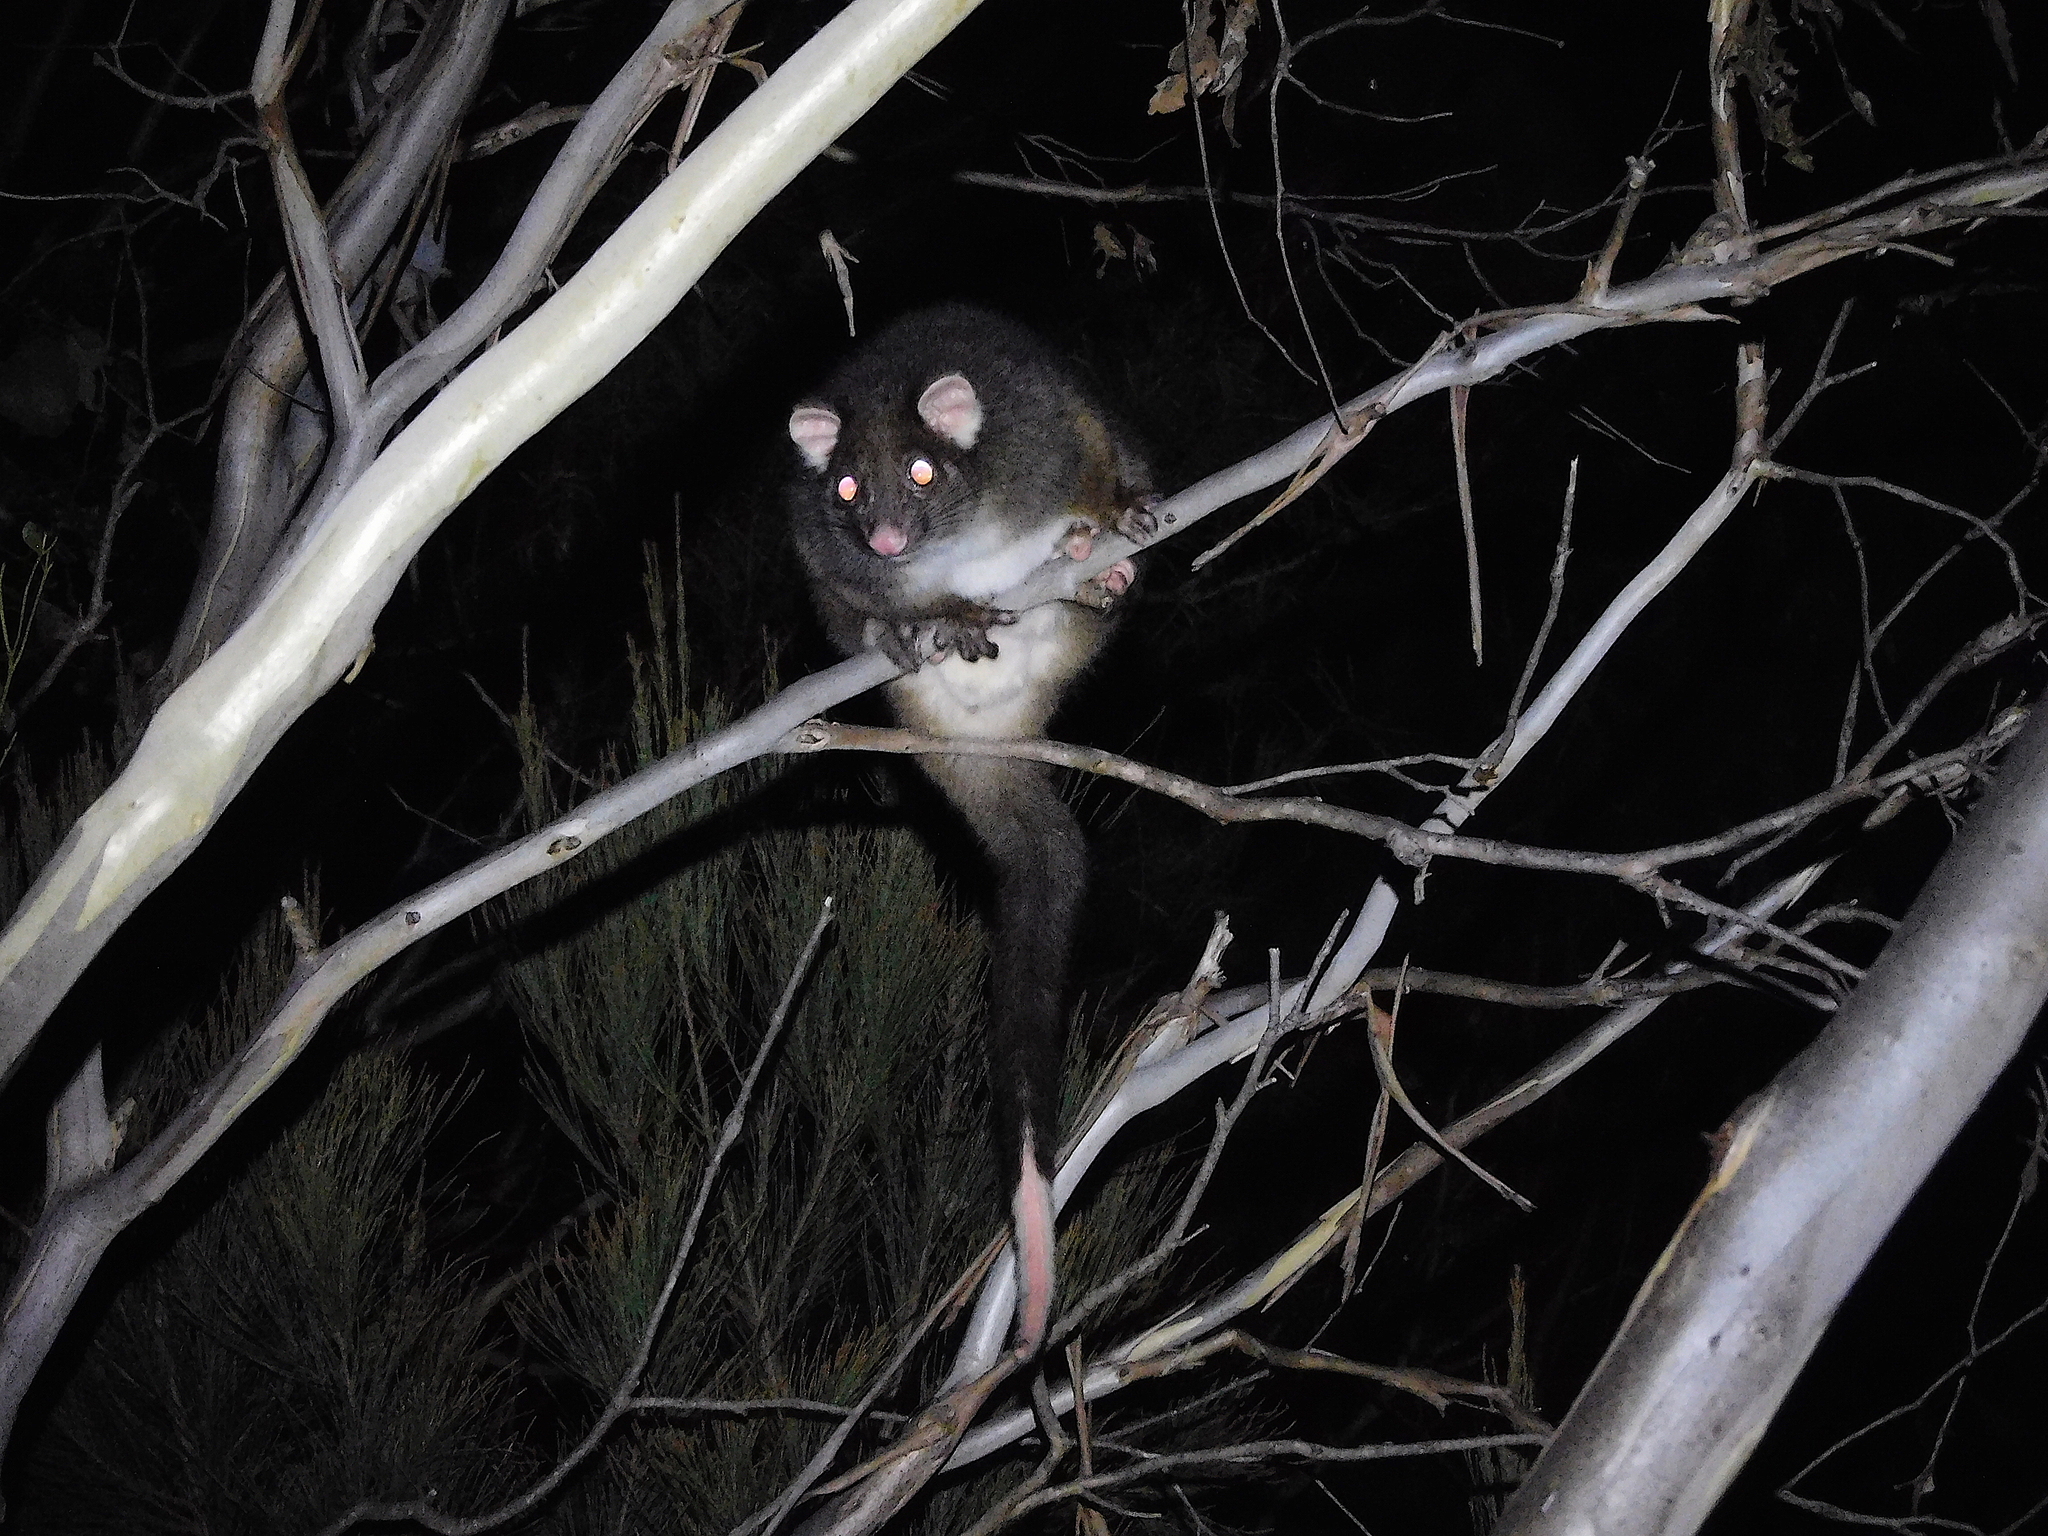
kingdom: Animalia
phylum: Chordata
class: Mammalia
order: Diprotodontia
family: Pseudocheiridae
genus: Pseudocheirus
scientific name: Pseudocheirus peregrinus
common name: Common ringtail possum
